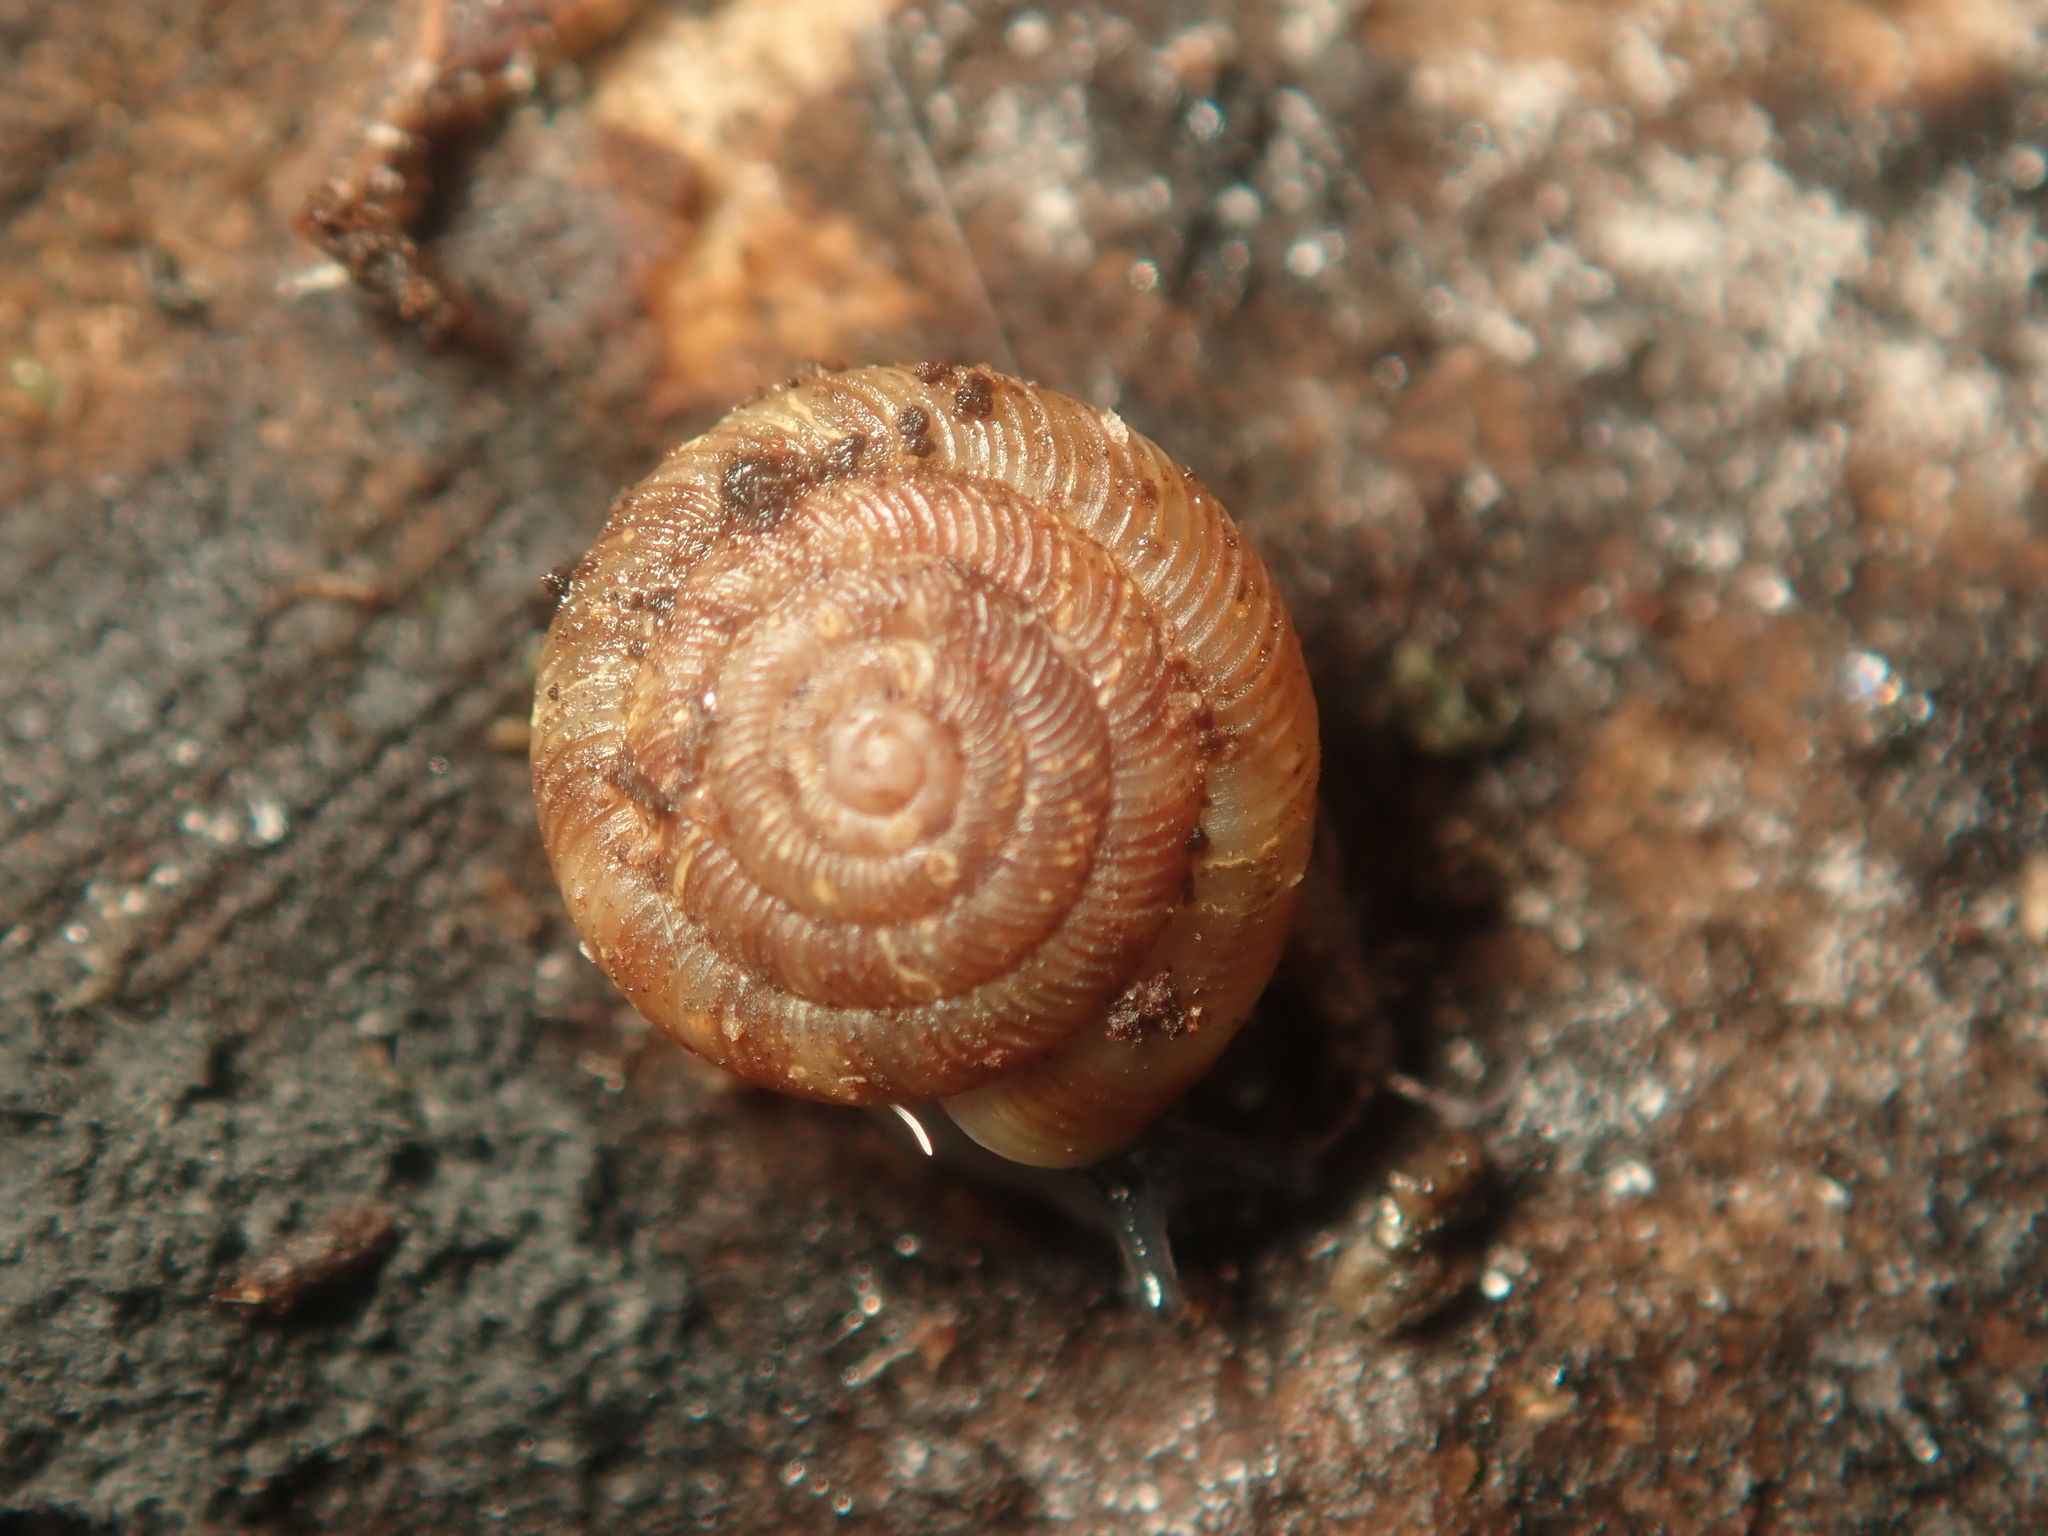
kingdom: Animalia
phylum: Mollusca
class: Gastropoda
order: Stylommatophora
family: Discidae
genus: Discus
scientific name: Discus rotundatus
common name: Rounded snail
